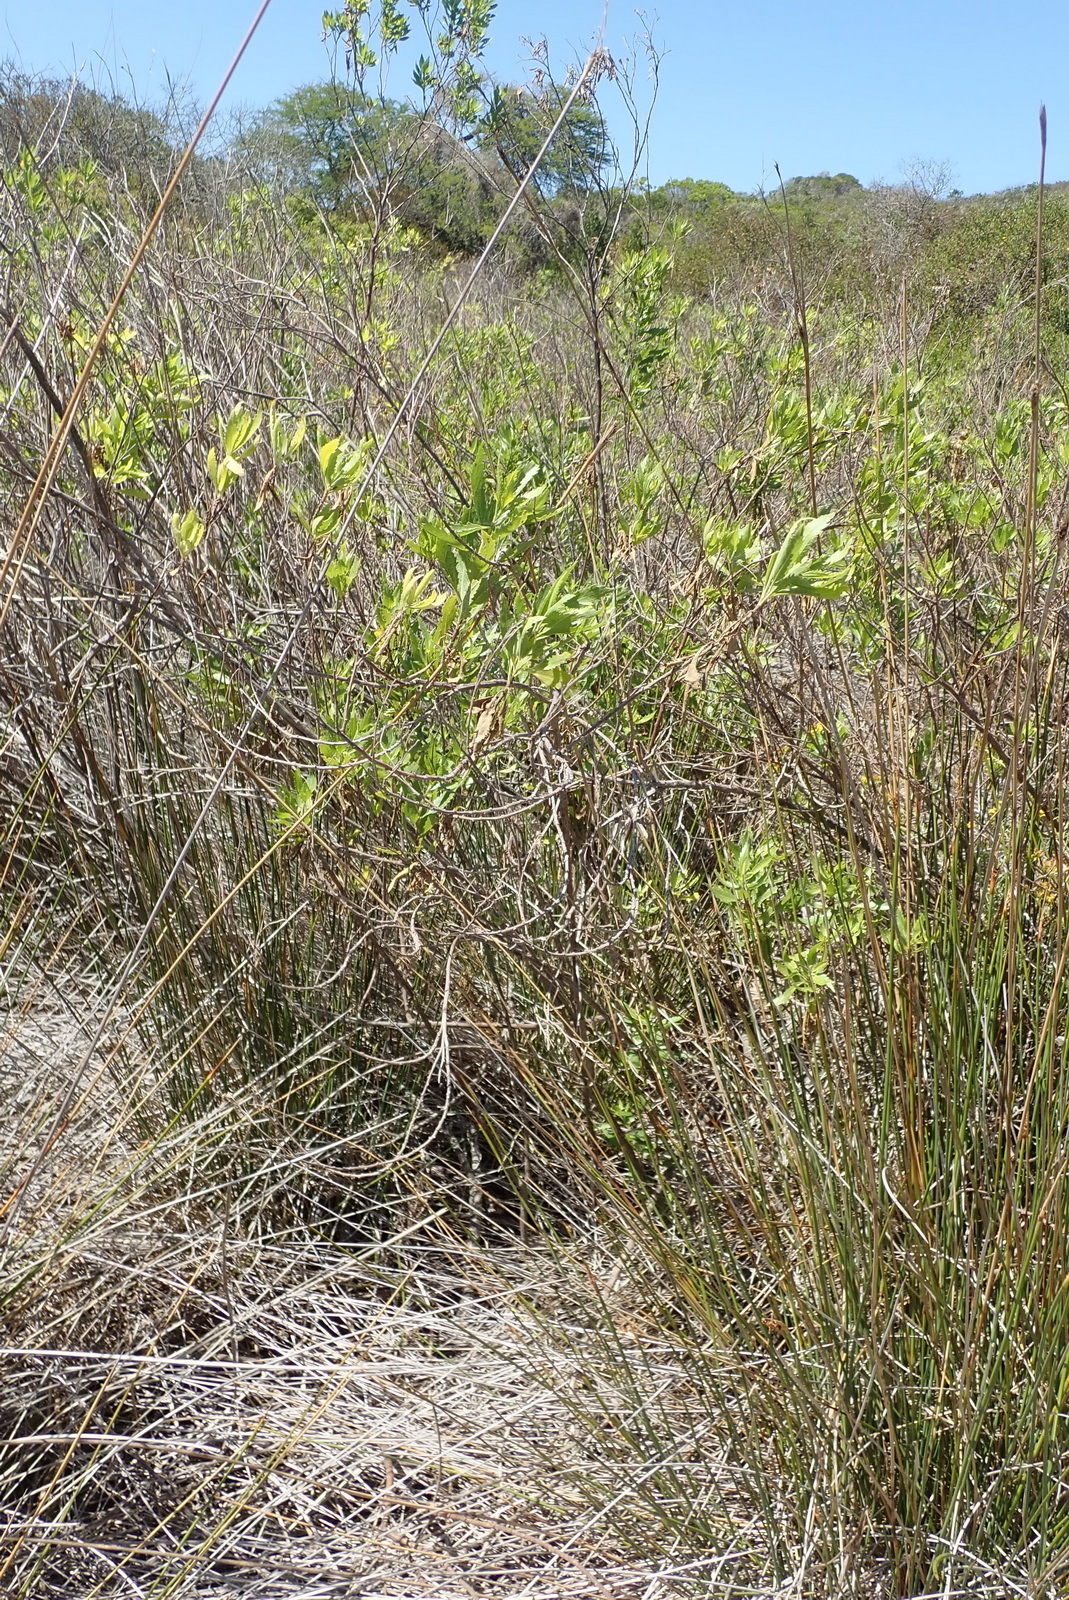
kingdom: Plantae
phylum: Tracheophyta
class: Magnoliopsida
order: Asterales
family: Asteraceae
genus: Nidorella
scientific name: Nidorella ivifolia
